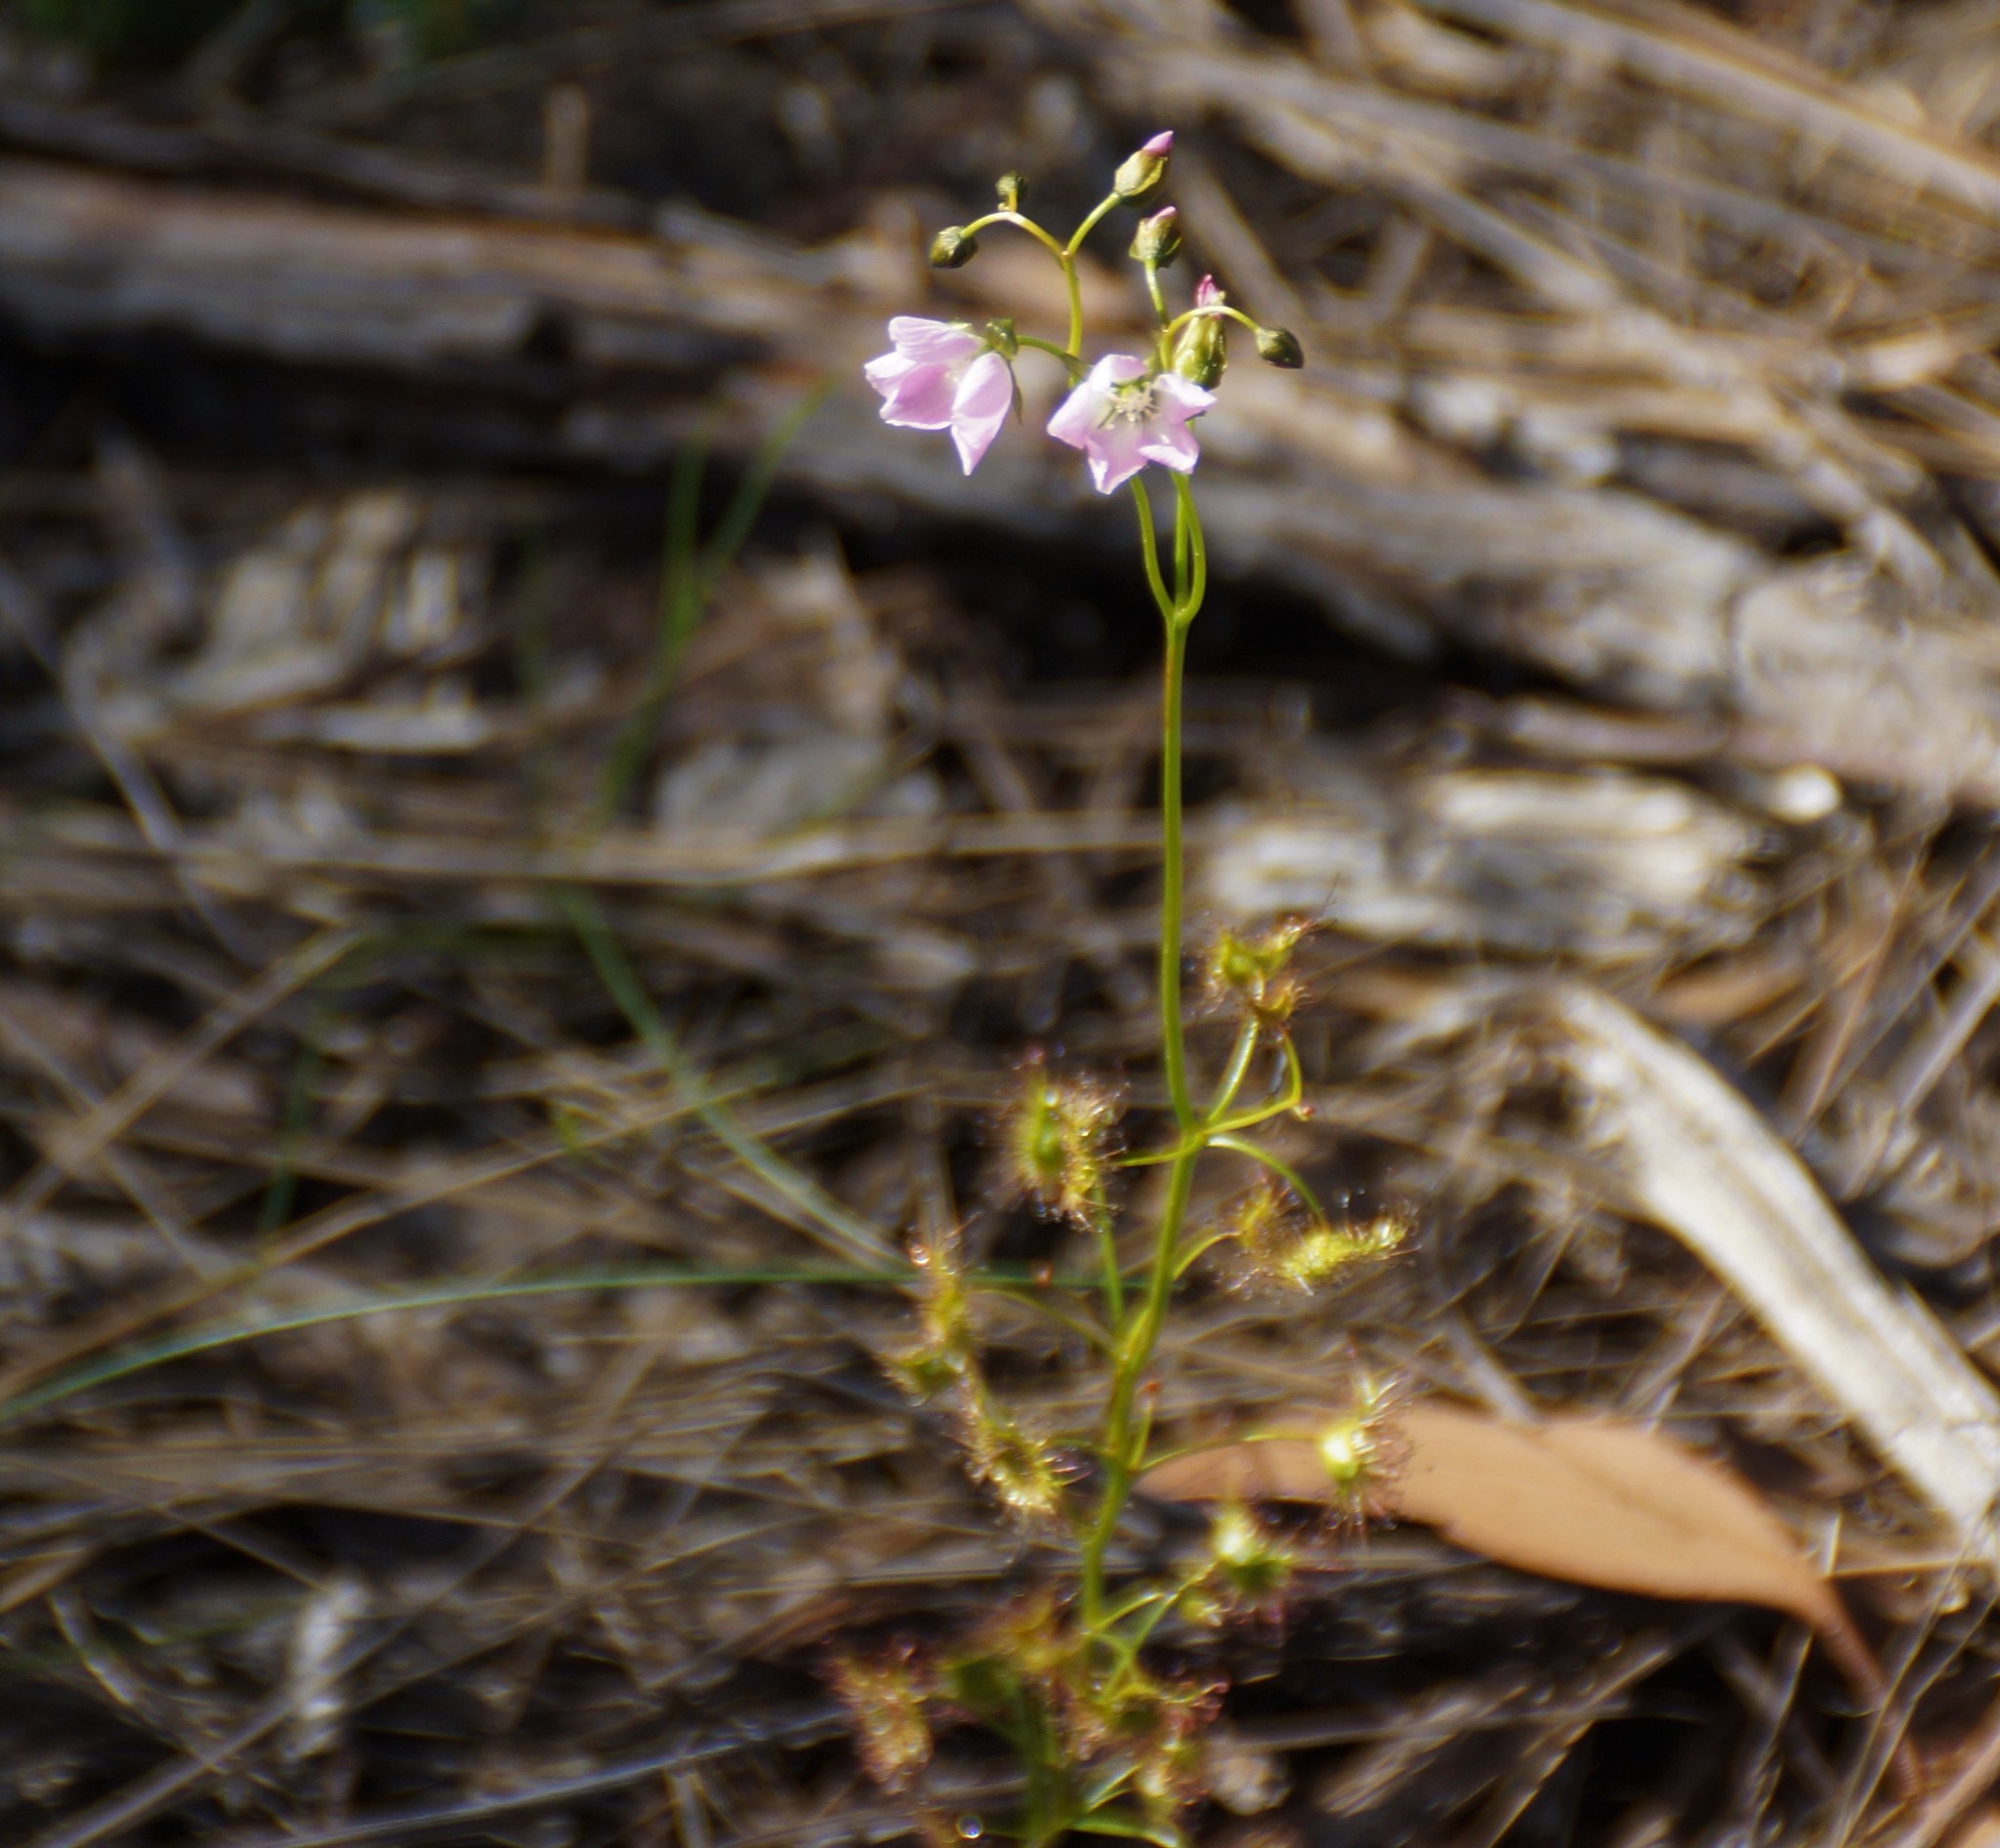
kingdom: Plantae
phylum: Tracheophyta
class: Magnoliopsida
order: Caryophyllales
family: Droseraceae
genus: Drosera
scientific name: Drosera peltata
